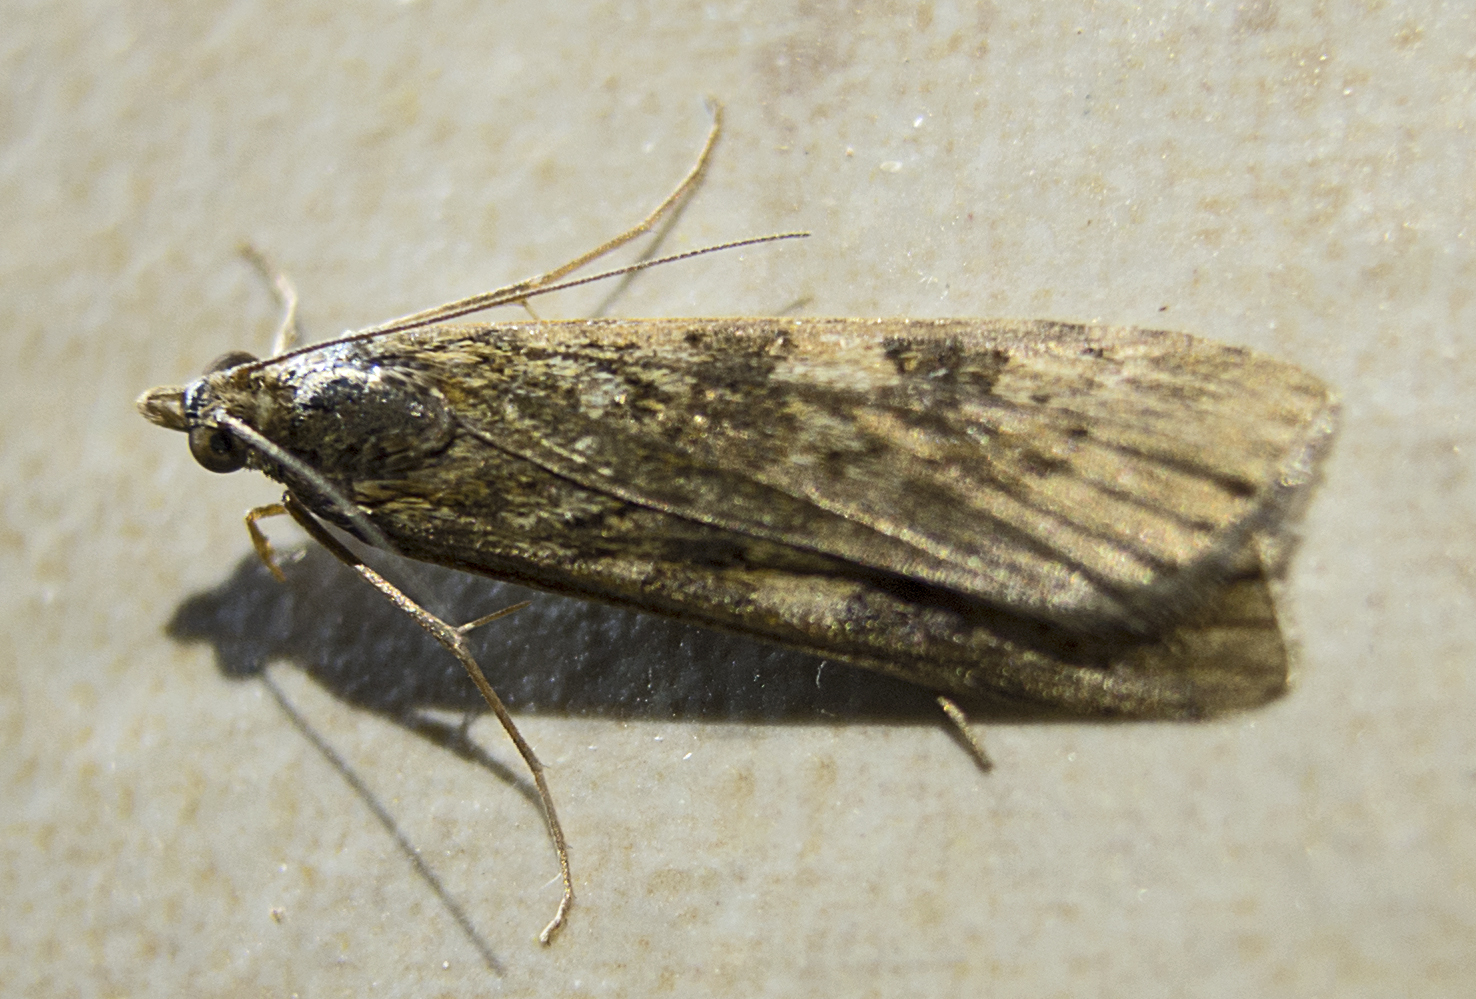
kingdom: Animalia
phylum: Arthropoda
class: Insecta
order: Lepidoptera
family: Crambidae
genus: Nomophila
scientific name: Nomophila noctuella
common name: Rush veneer
